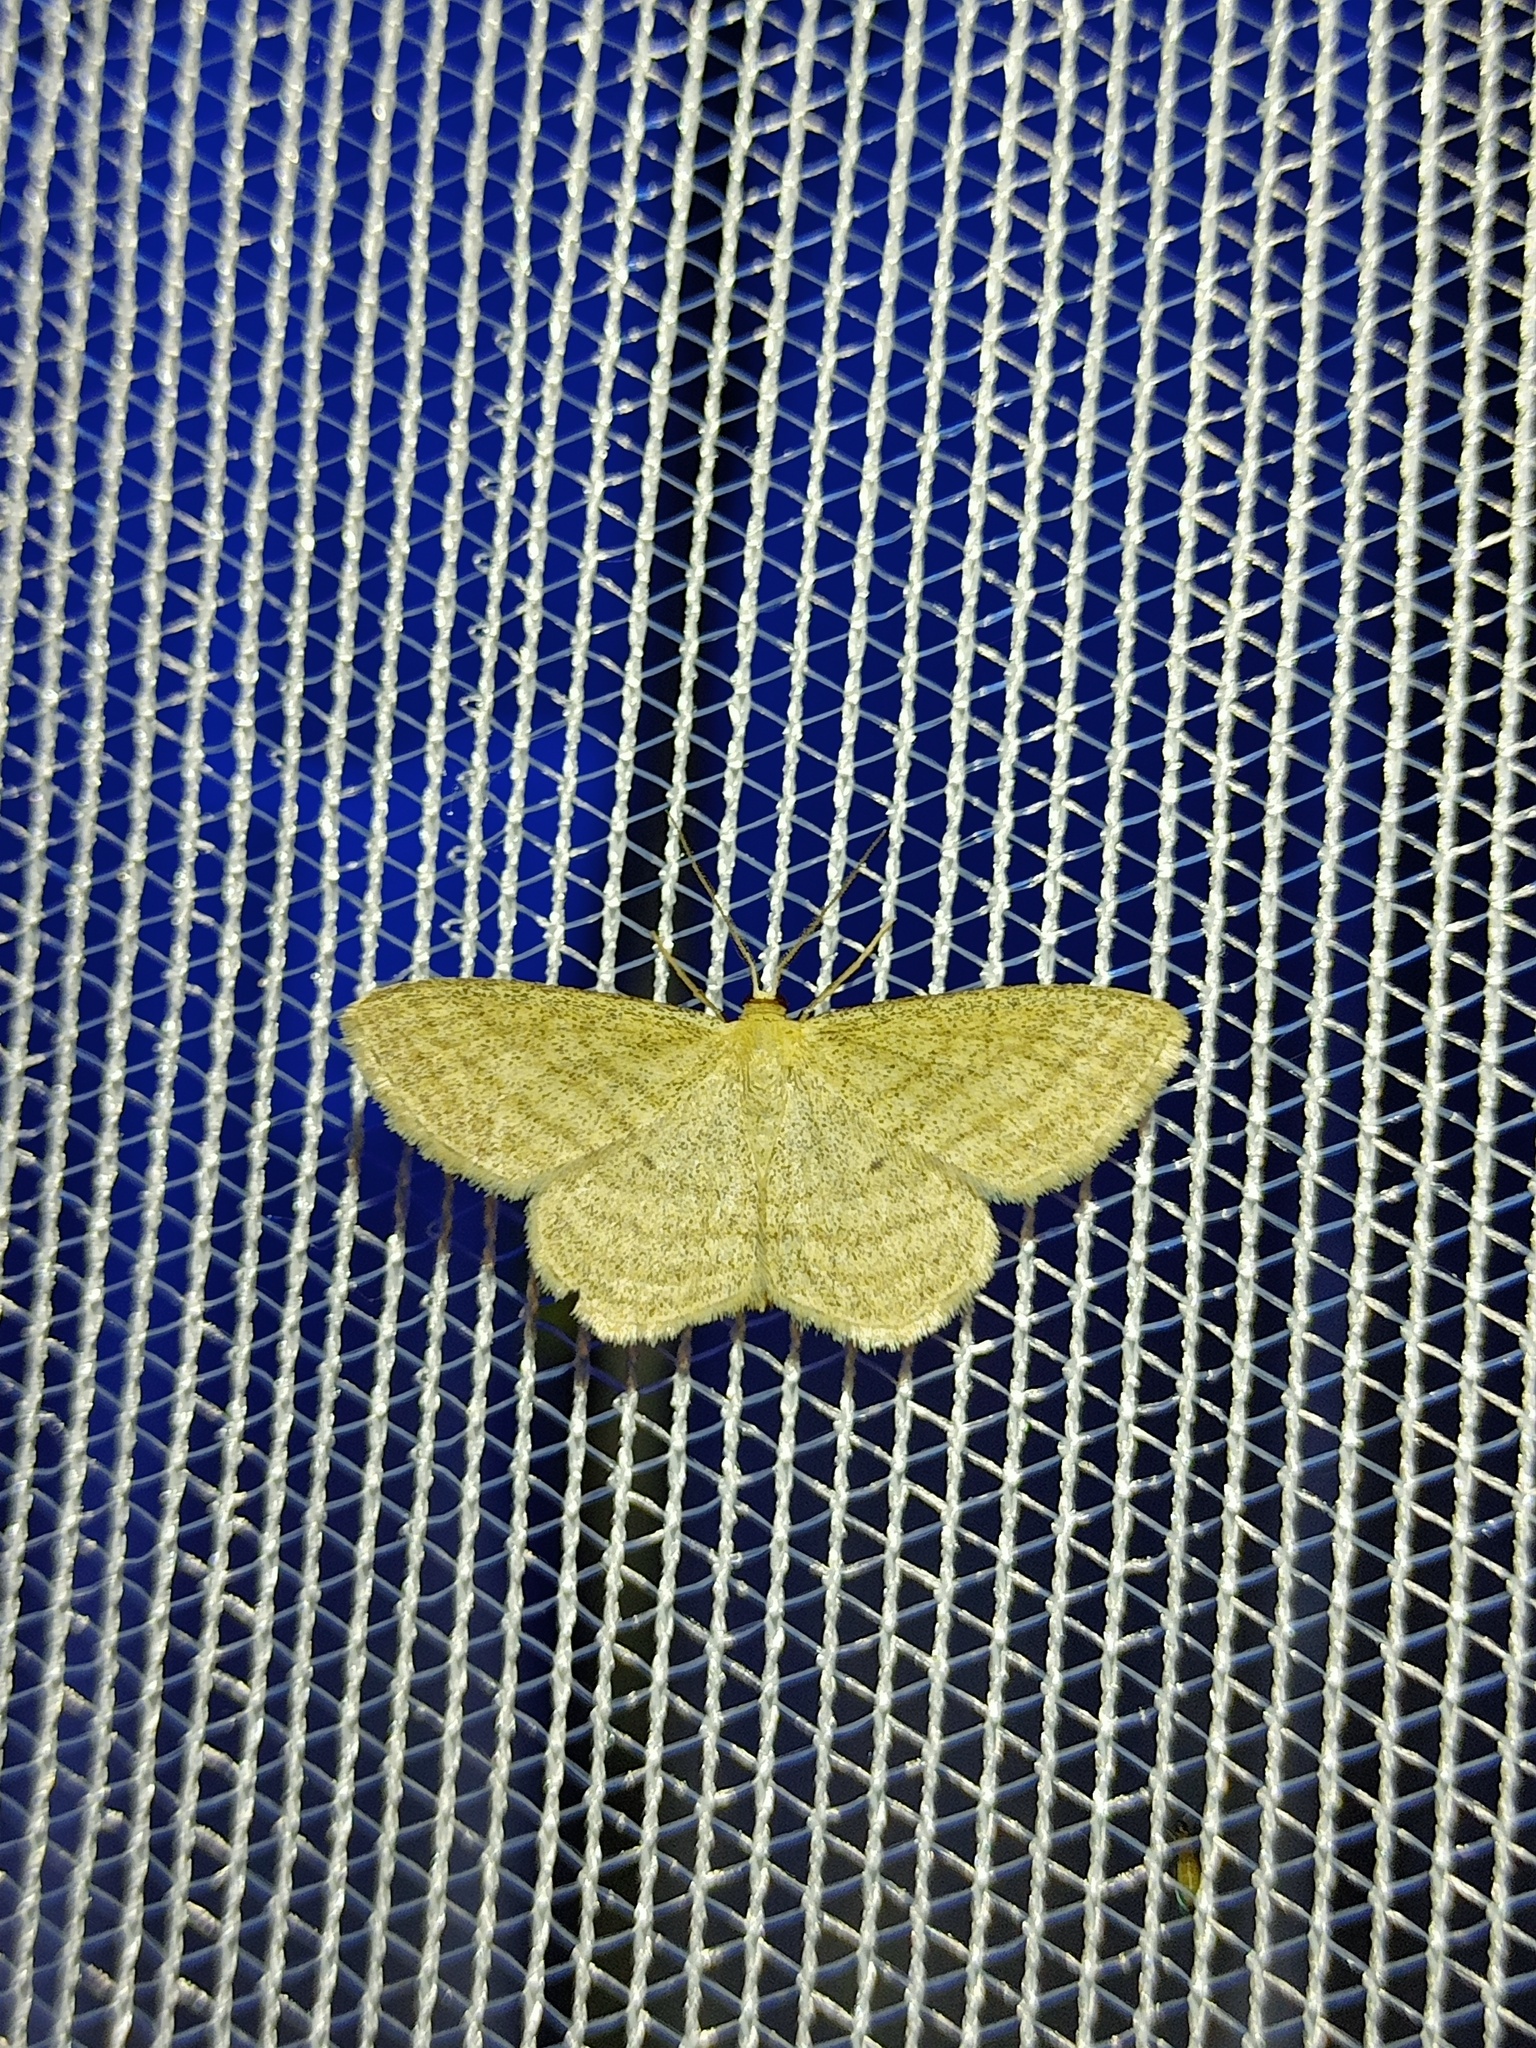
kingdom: Animalia
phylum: Arthropoda
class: Insecta
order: Lepidoptera
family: Geometridae
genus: Scopula
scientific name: Scopula virgulata
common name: Streaked wave
